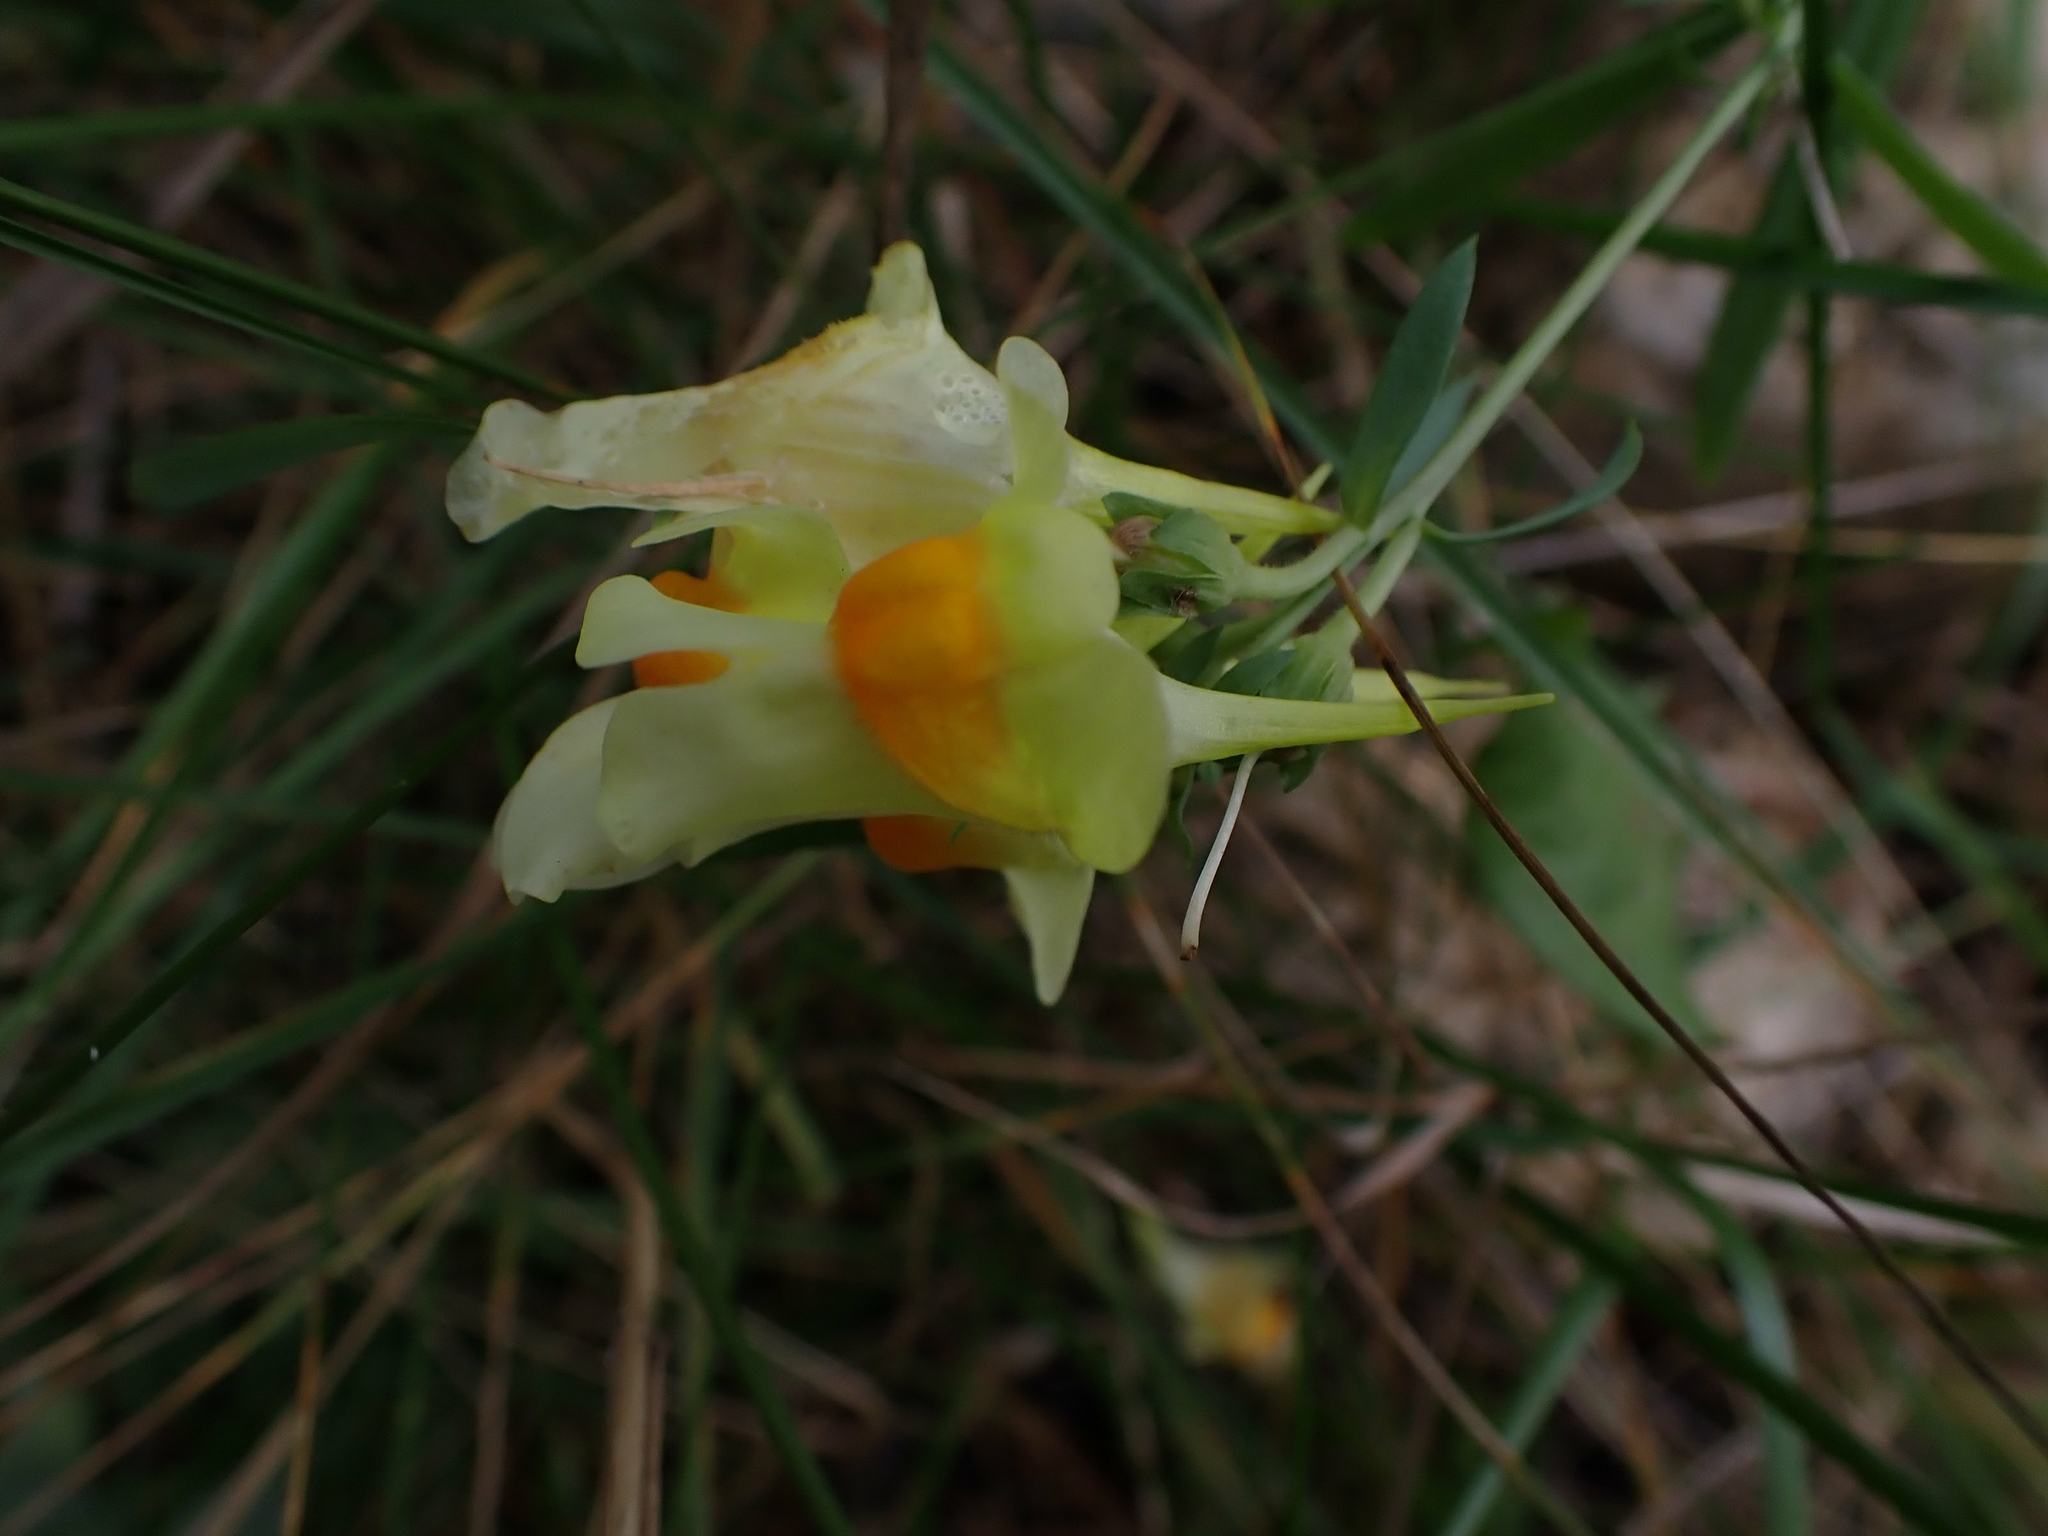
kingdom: Plantae
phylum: Tracheophyta
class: Magnoliopsida
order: Lamiales
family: Plantaginaceae
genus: Linaria
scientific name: Linaria vulgaris
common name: Butter and eggs
